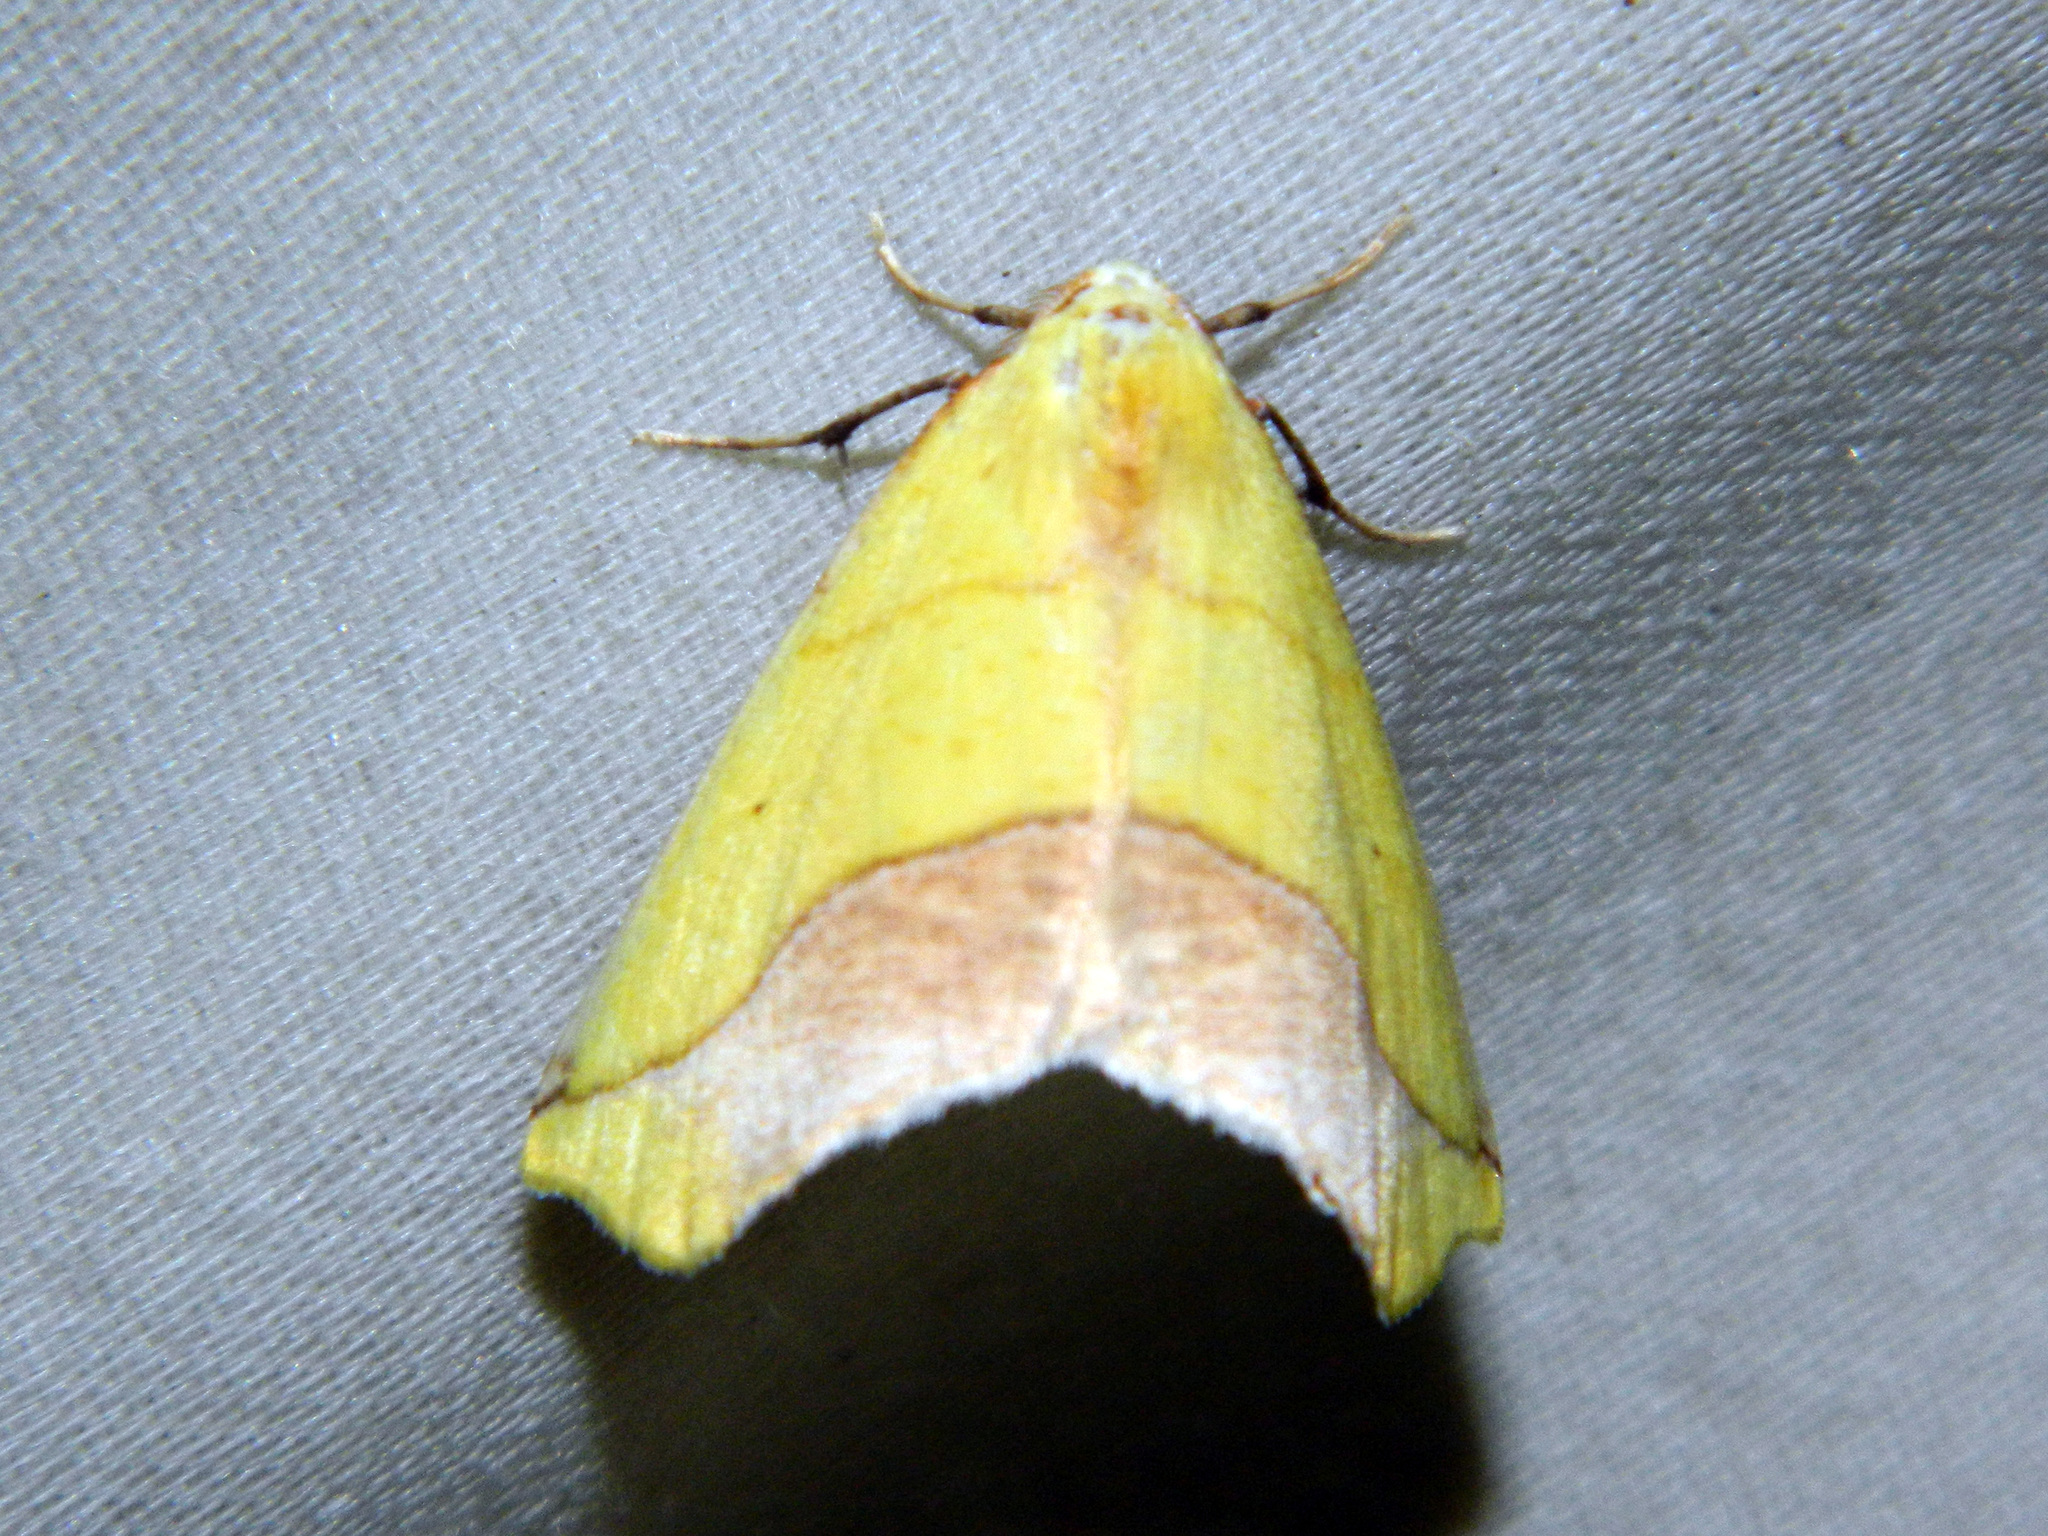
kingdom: Animalia
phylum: Arthropoda
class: Insecta
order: Lepidoptera
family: Geometridae
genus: Sicya
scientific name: Sicya macularia
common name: Sharp-lined yellow
